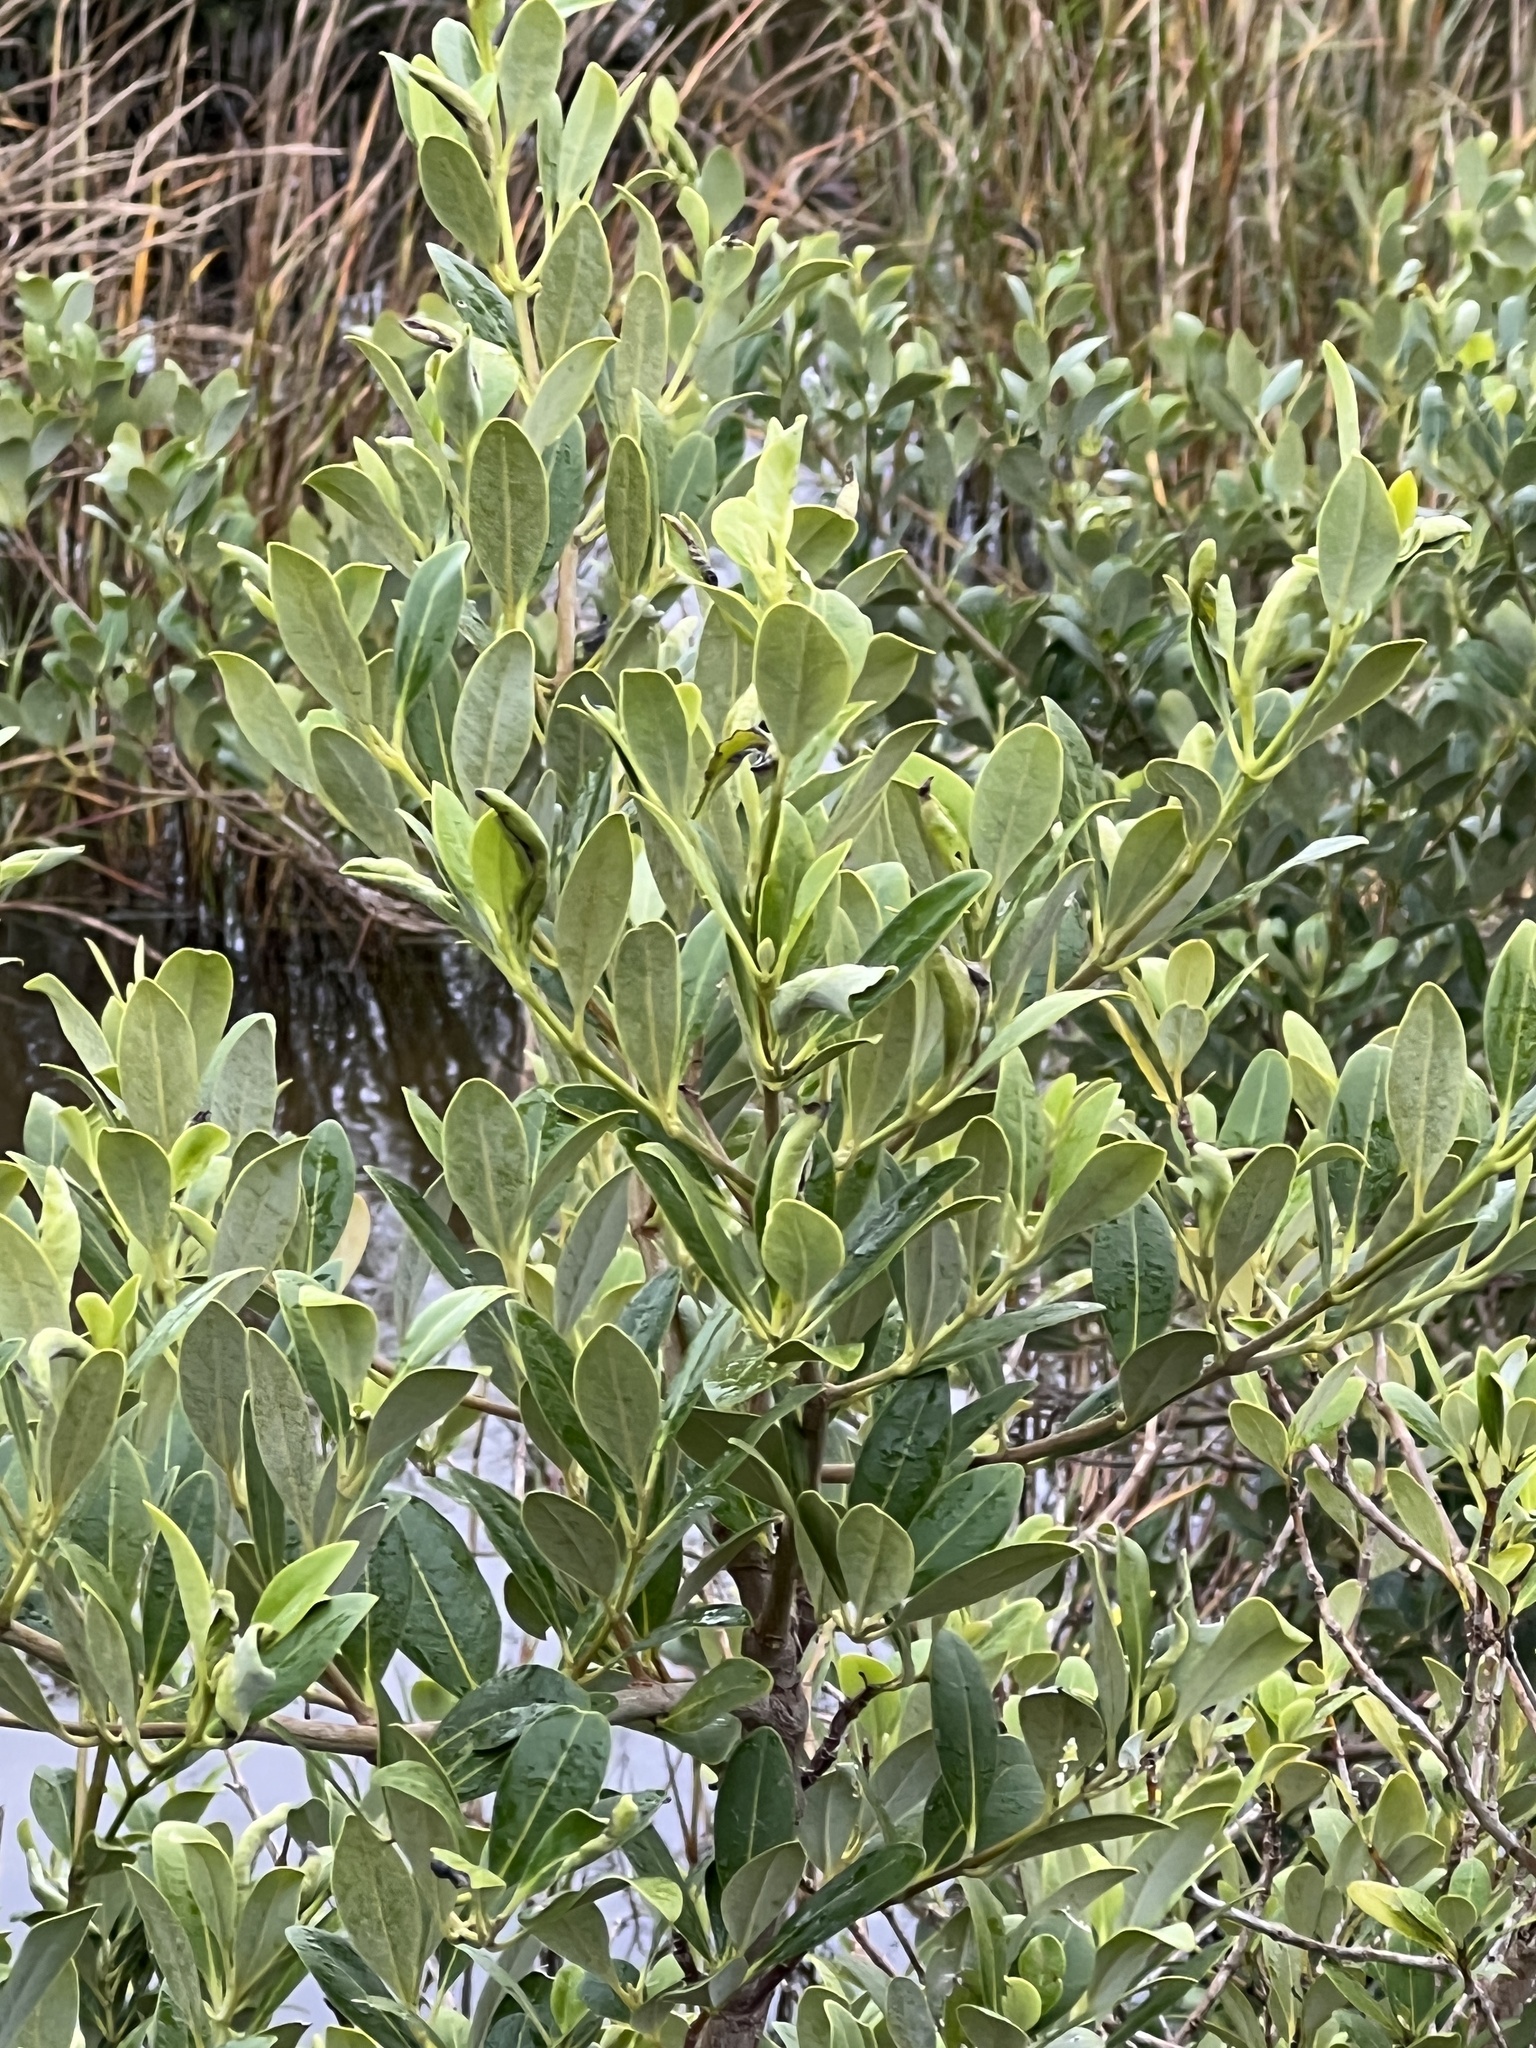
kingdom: Plantae
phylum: Tracheophyta
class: Magnoliopsida
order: Lamiales
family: Acanthaceae
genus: Avicennia
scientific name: Avicennia germinans
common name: Black mangrove
